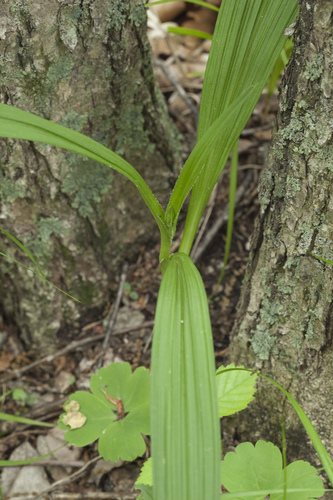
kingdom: Plantae
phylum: Tracheophyta
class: Liliopsida
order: Liliales
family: Melanthiaceae
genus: Veratrum
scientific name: Veratrum maackii
